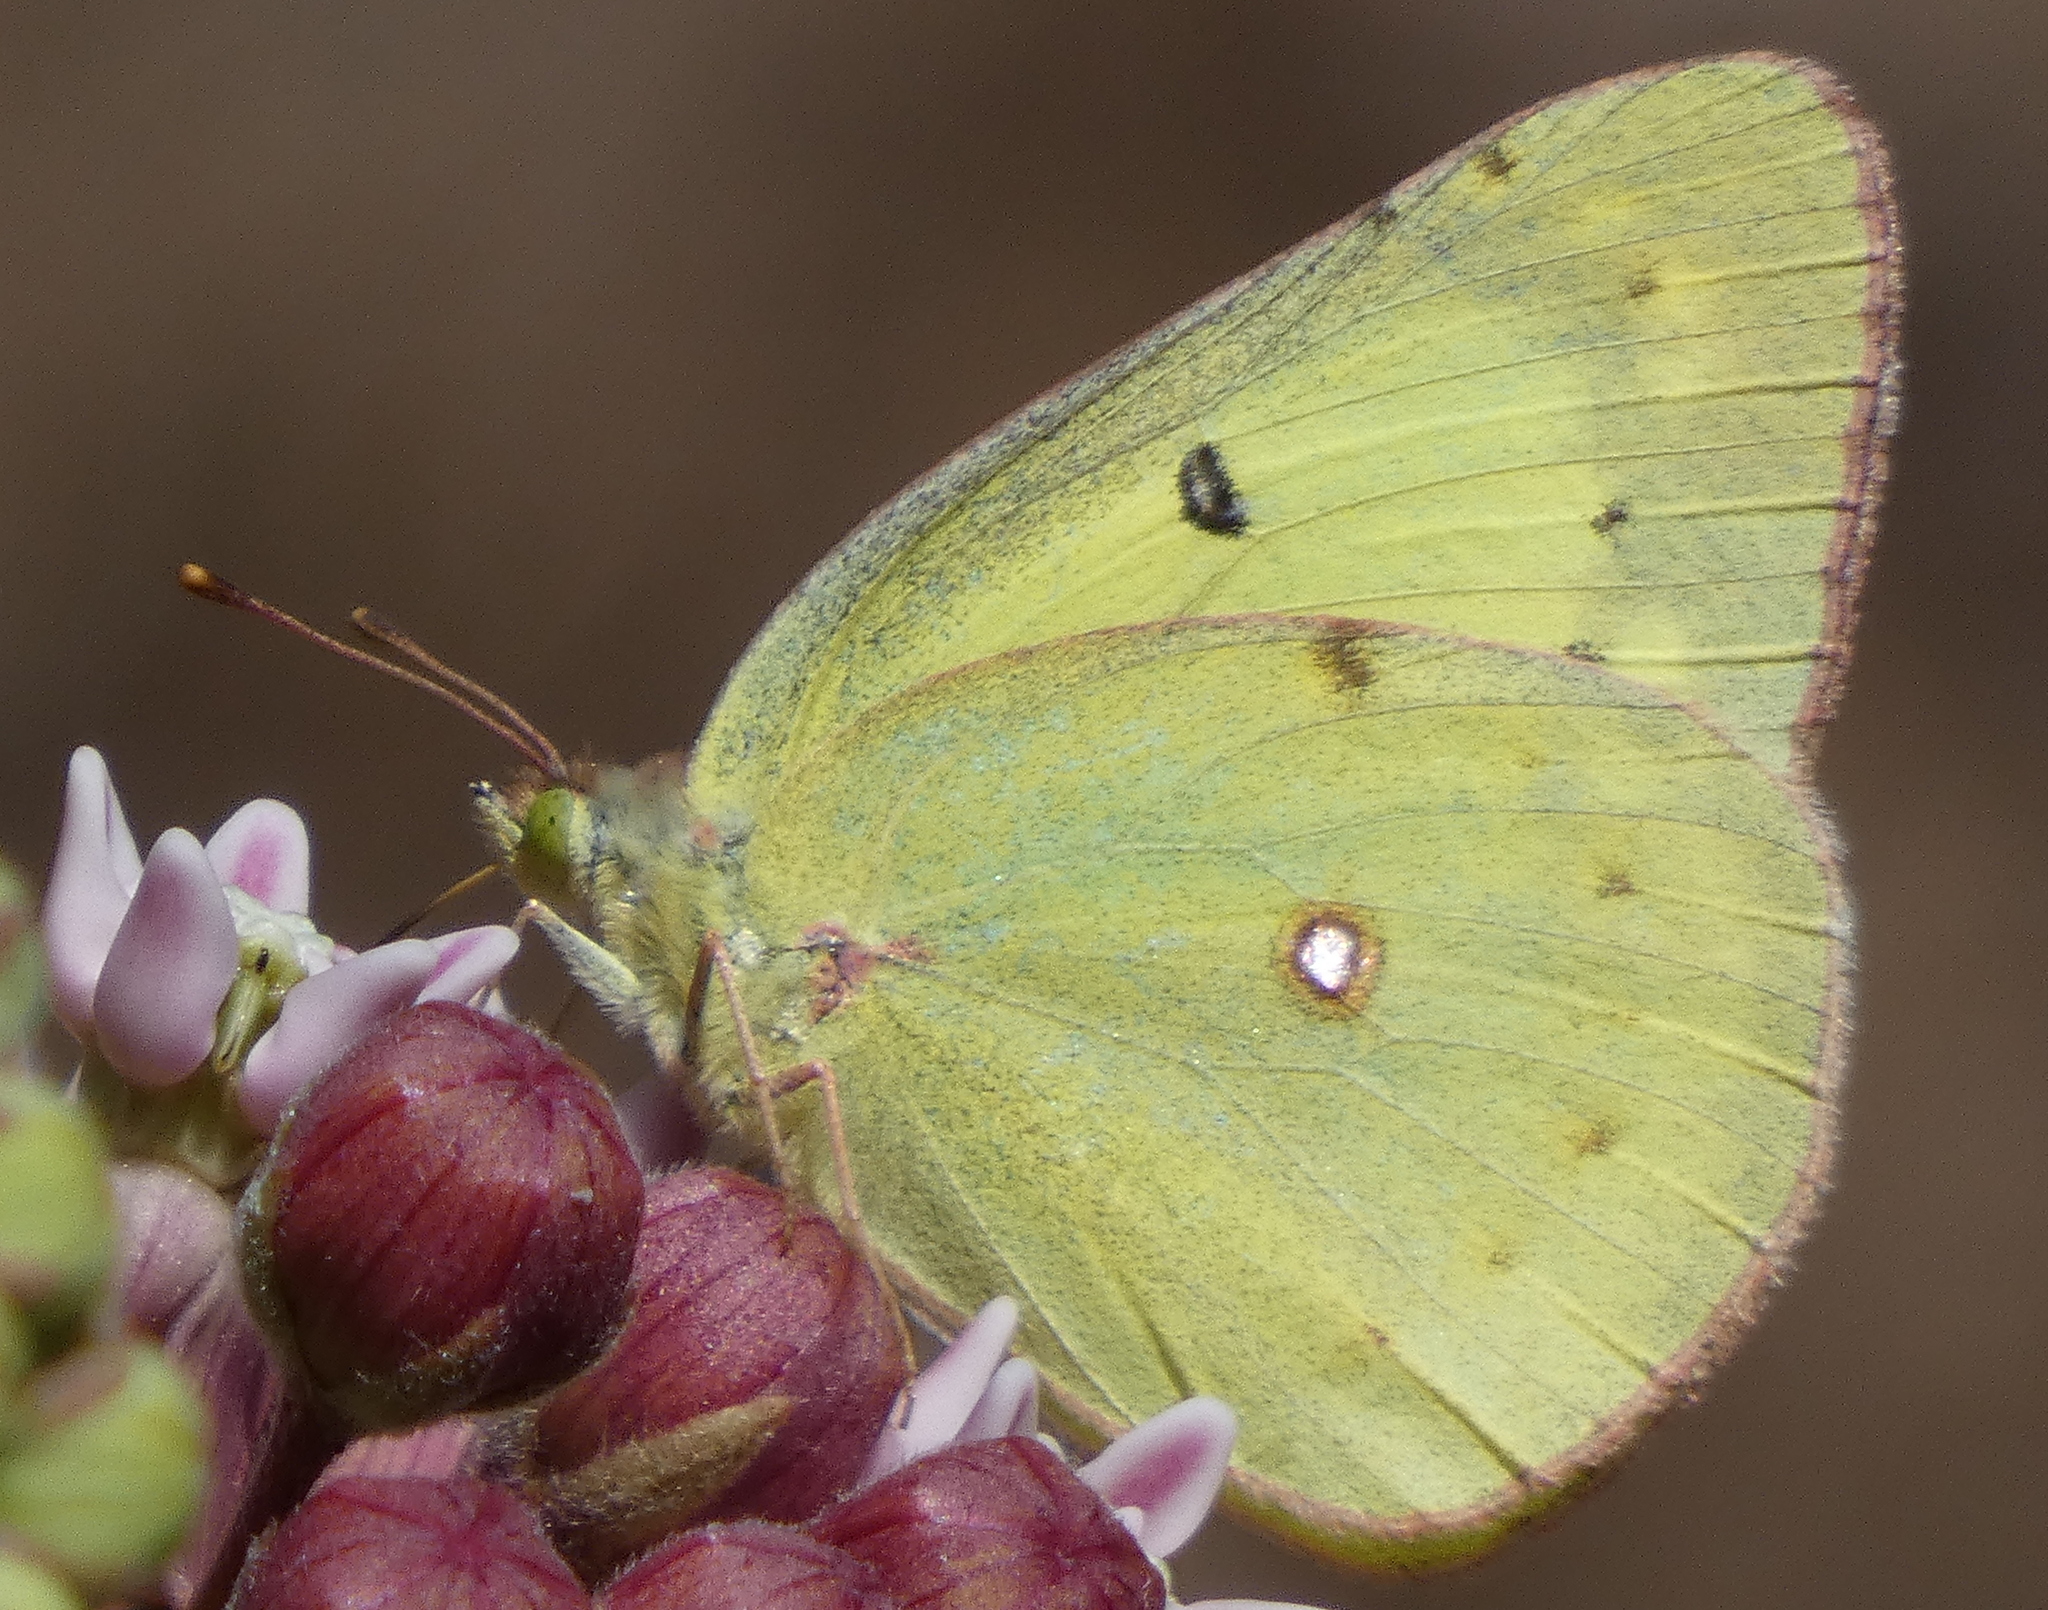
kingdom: Animalia
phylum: Arthropoda
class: Insecta
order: Lepidoptera
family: Pieridae
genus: Colias
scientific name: Colias philodice
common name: Clouded sulphur
